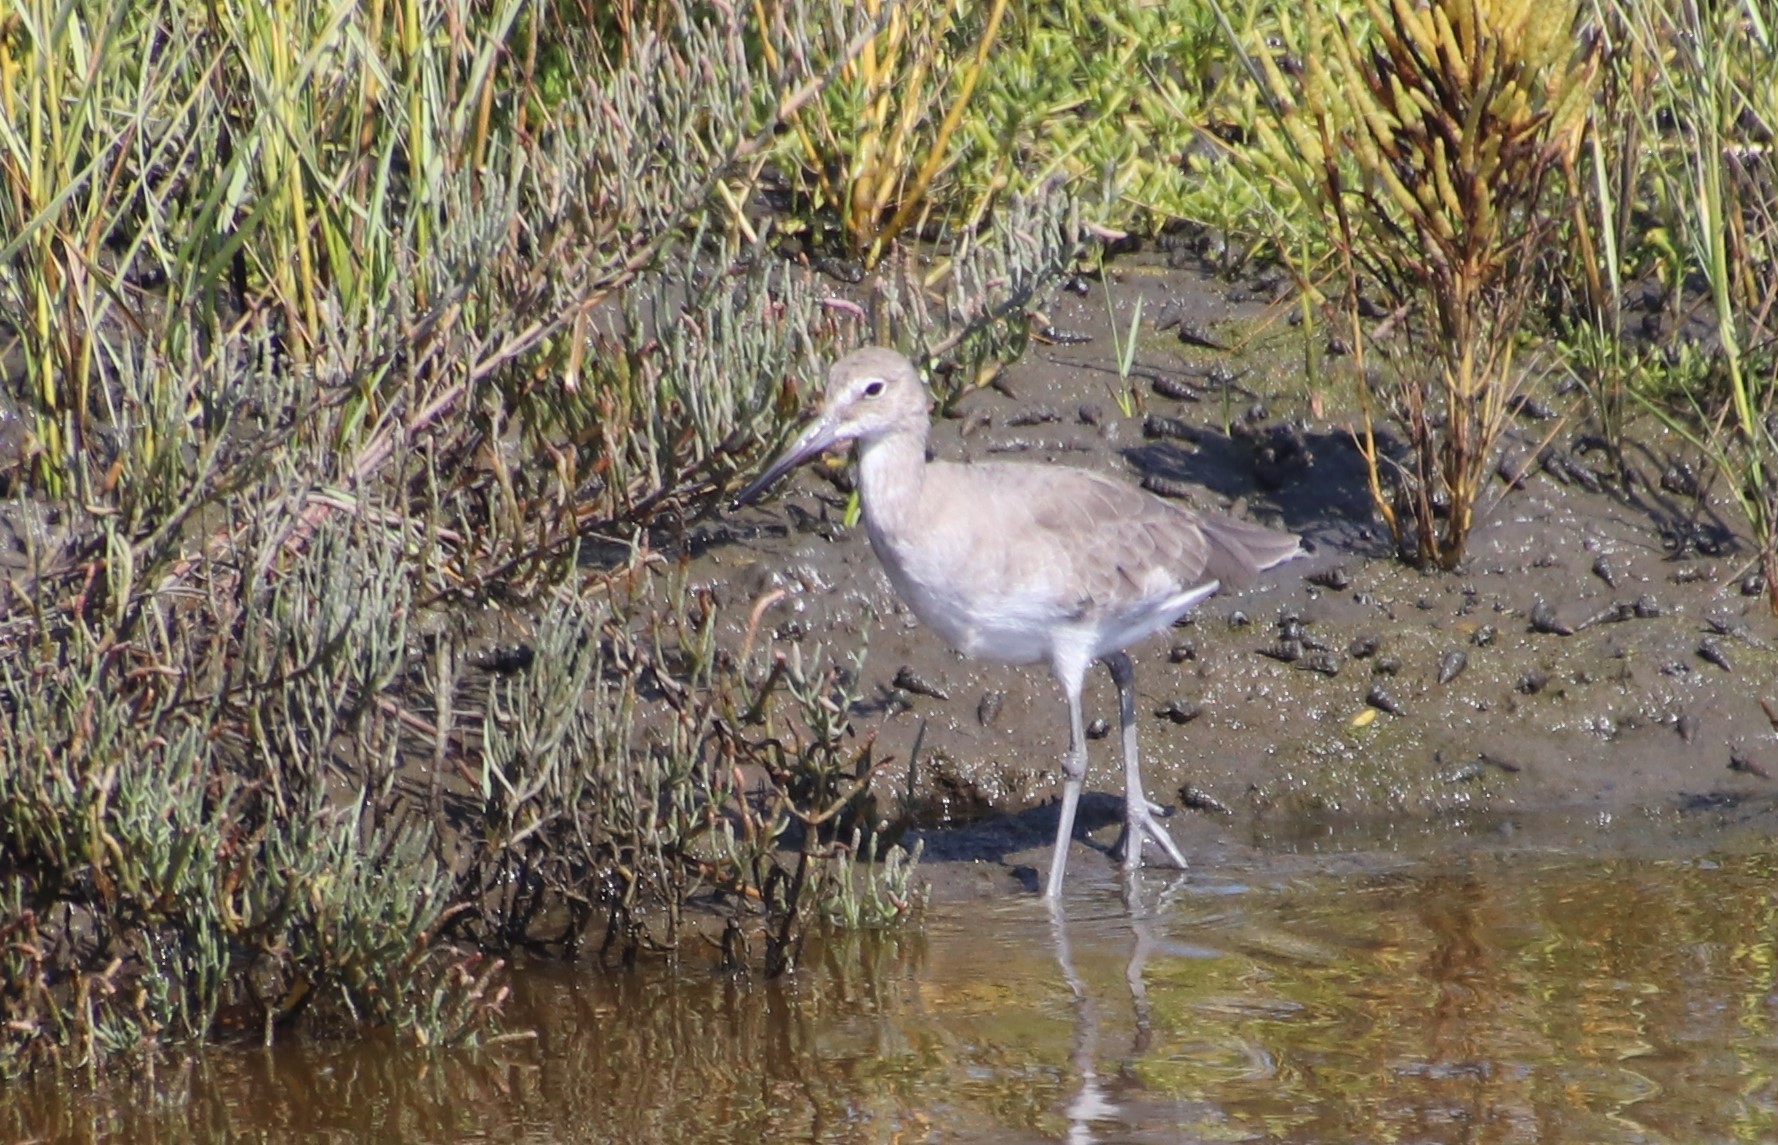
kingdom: Animalia
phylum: Chordata
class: Aves
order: Charadriiformes
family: Scolopacidae
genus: Tringa
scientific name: Tringa semipalmata
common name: Willet
